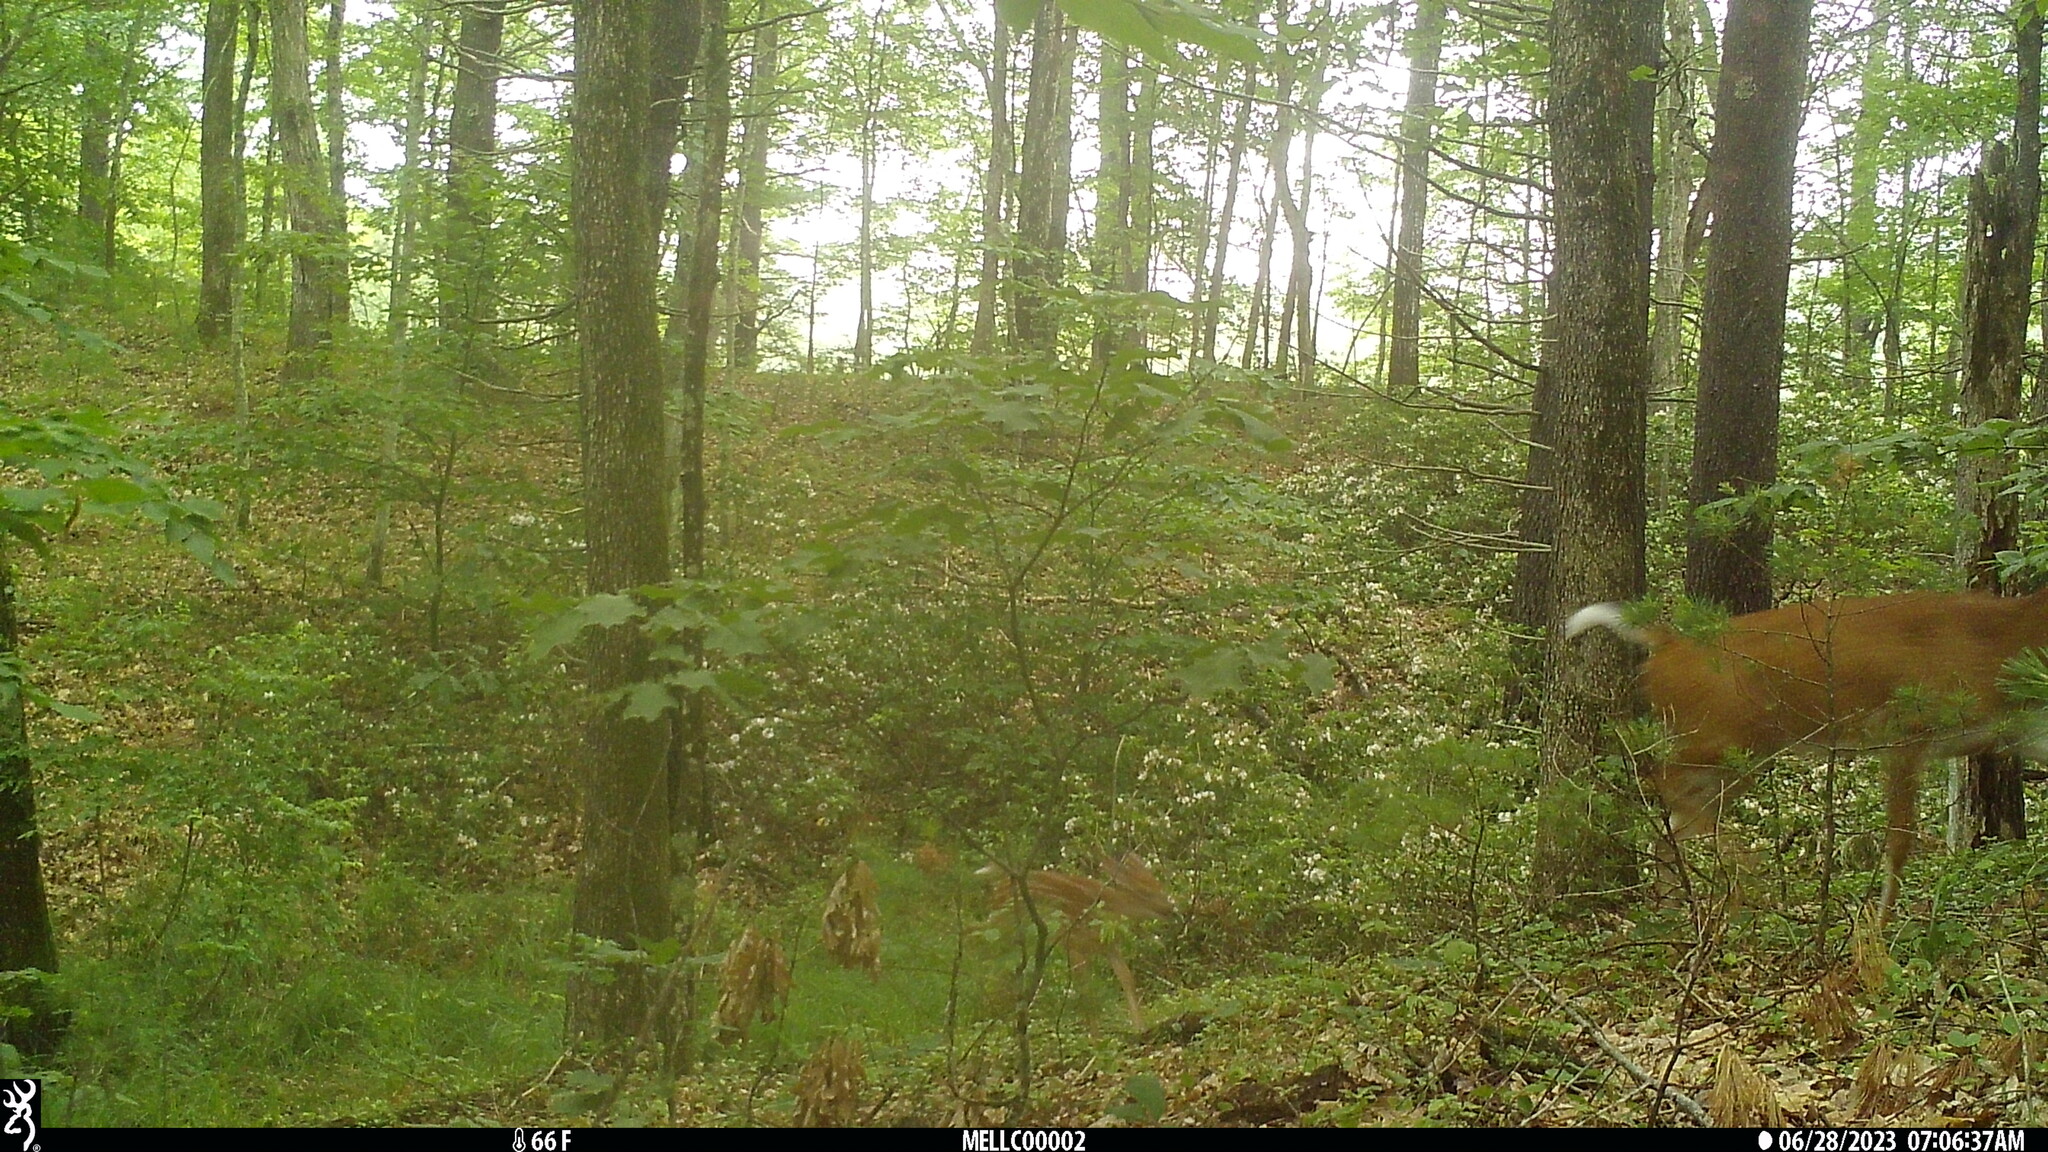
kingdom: Animalia
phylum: Chordata
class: Mammalia
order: Artiodactyla
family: Cervidae
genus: Odocoileus
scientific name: Odocoileus virginianus
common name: White-tailed deer
